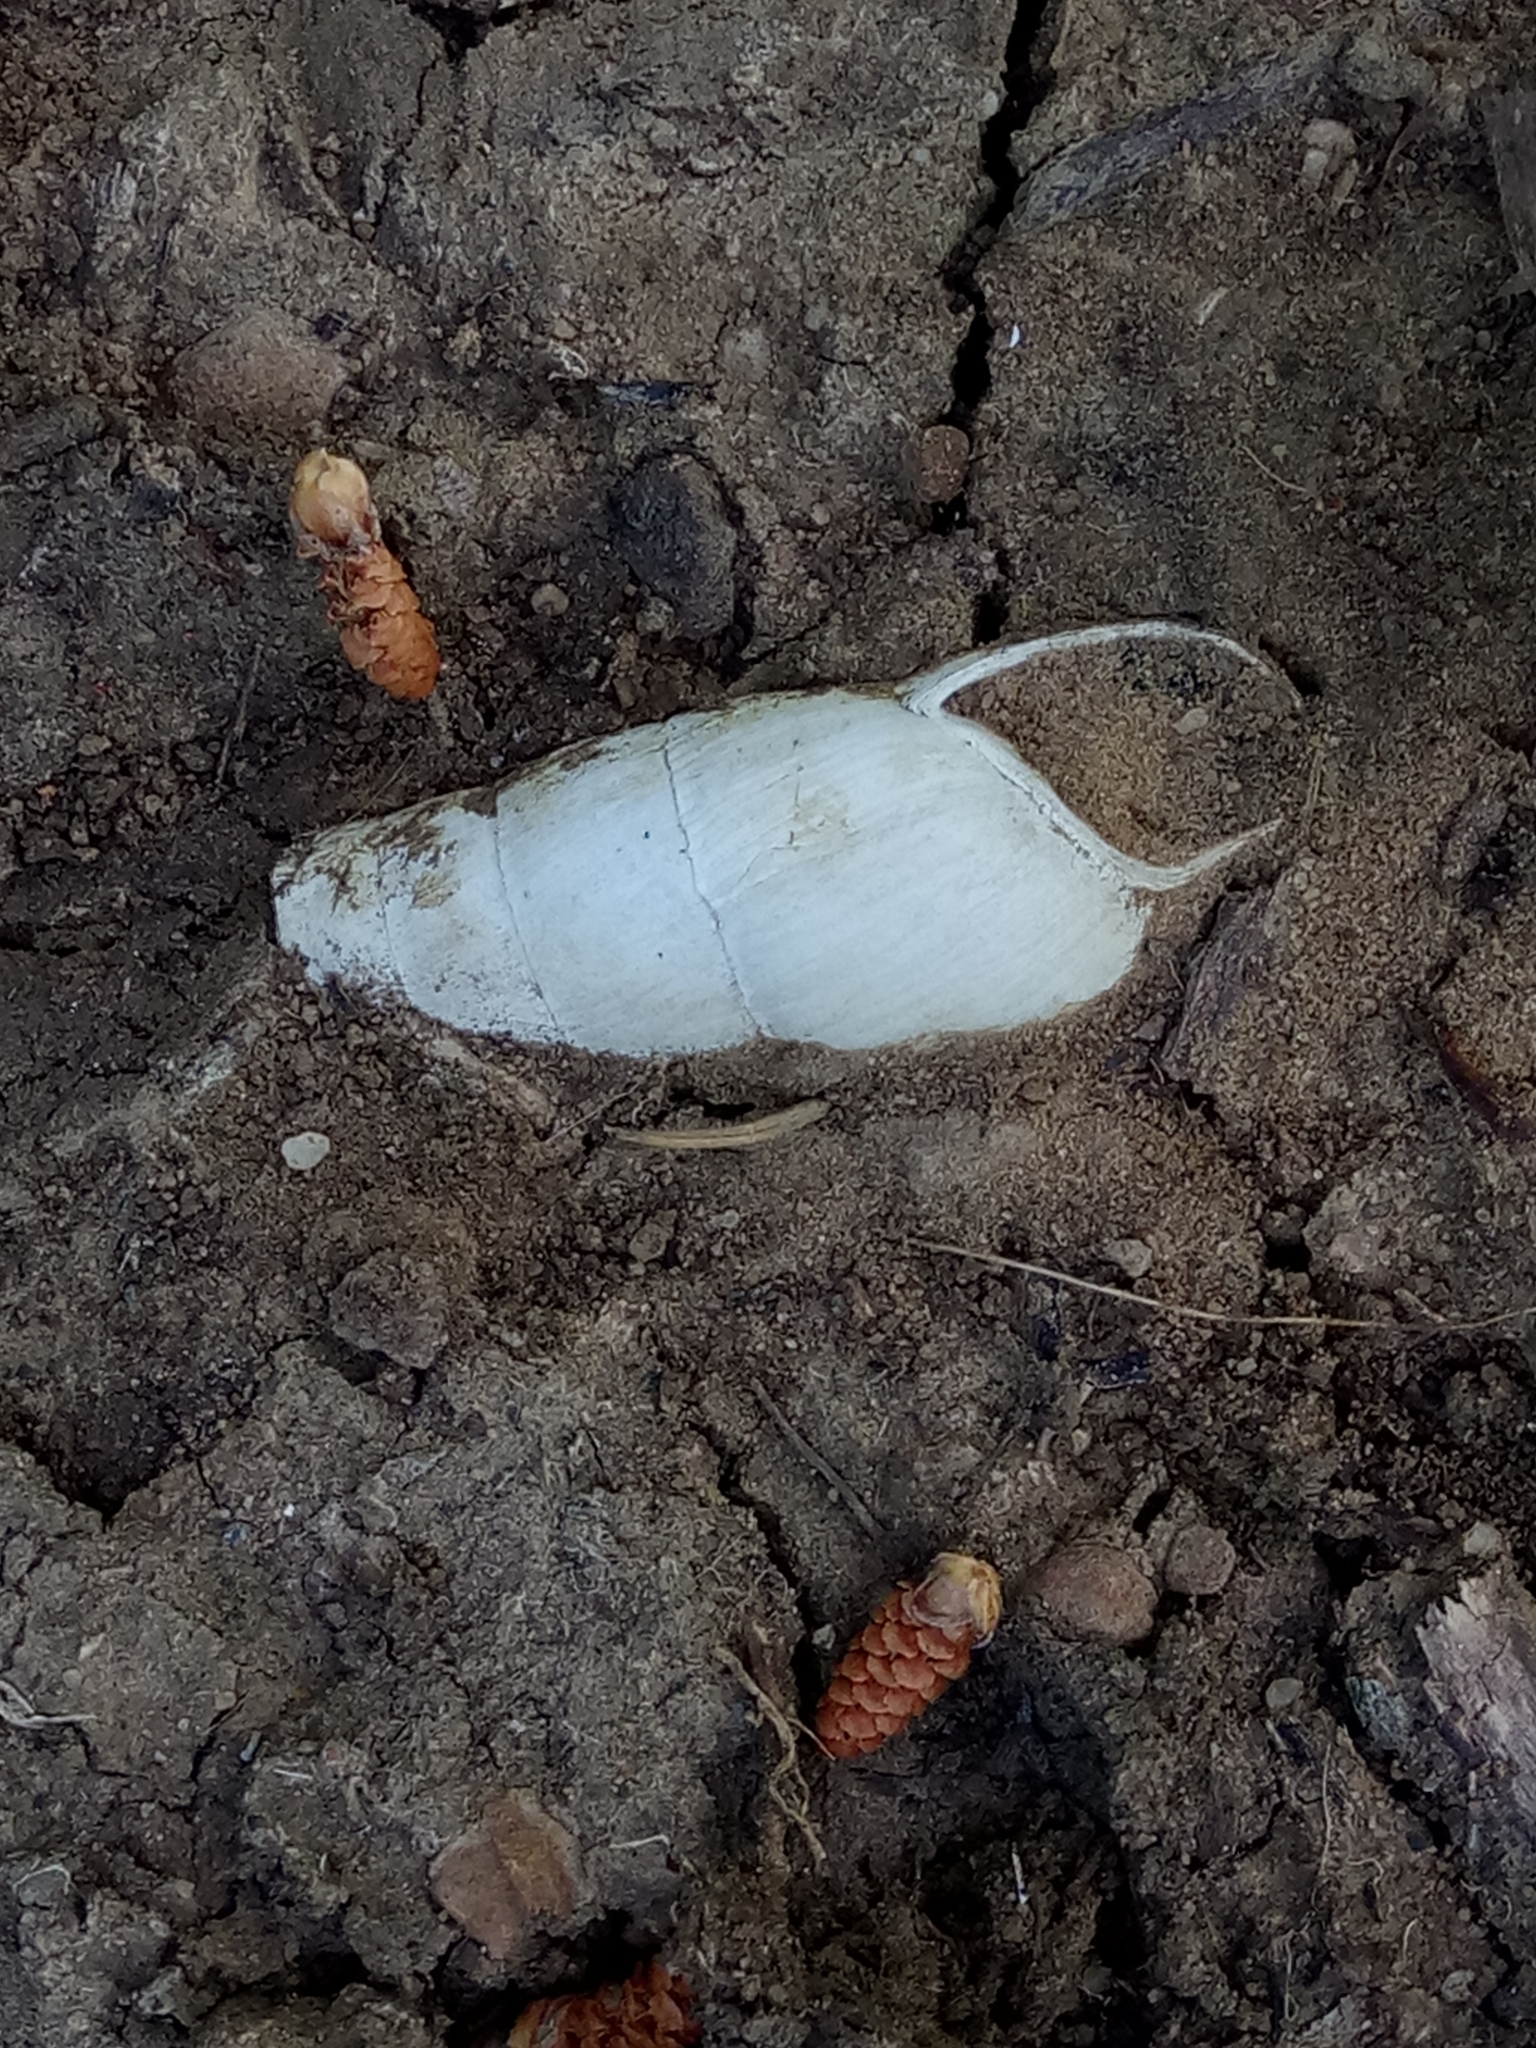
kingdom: Animalia
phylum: Mollusca
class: Gastropoda
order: Stylommatophora
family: Achatinidae
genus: Rumina
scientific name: Rumina decollata
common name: Decollate snail
